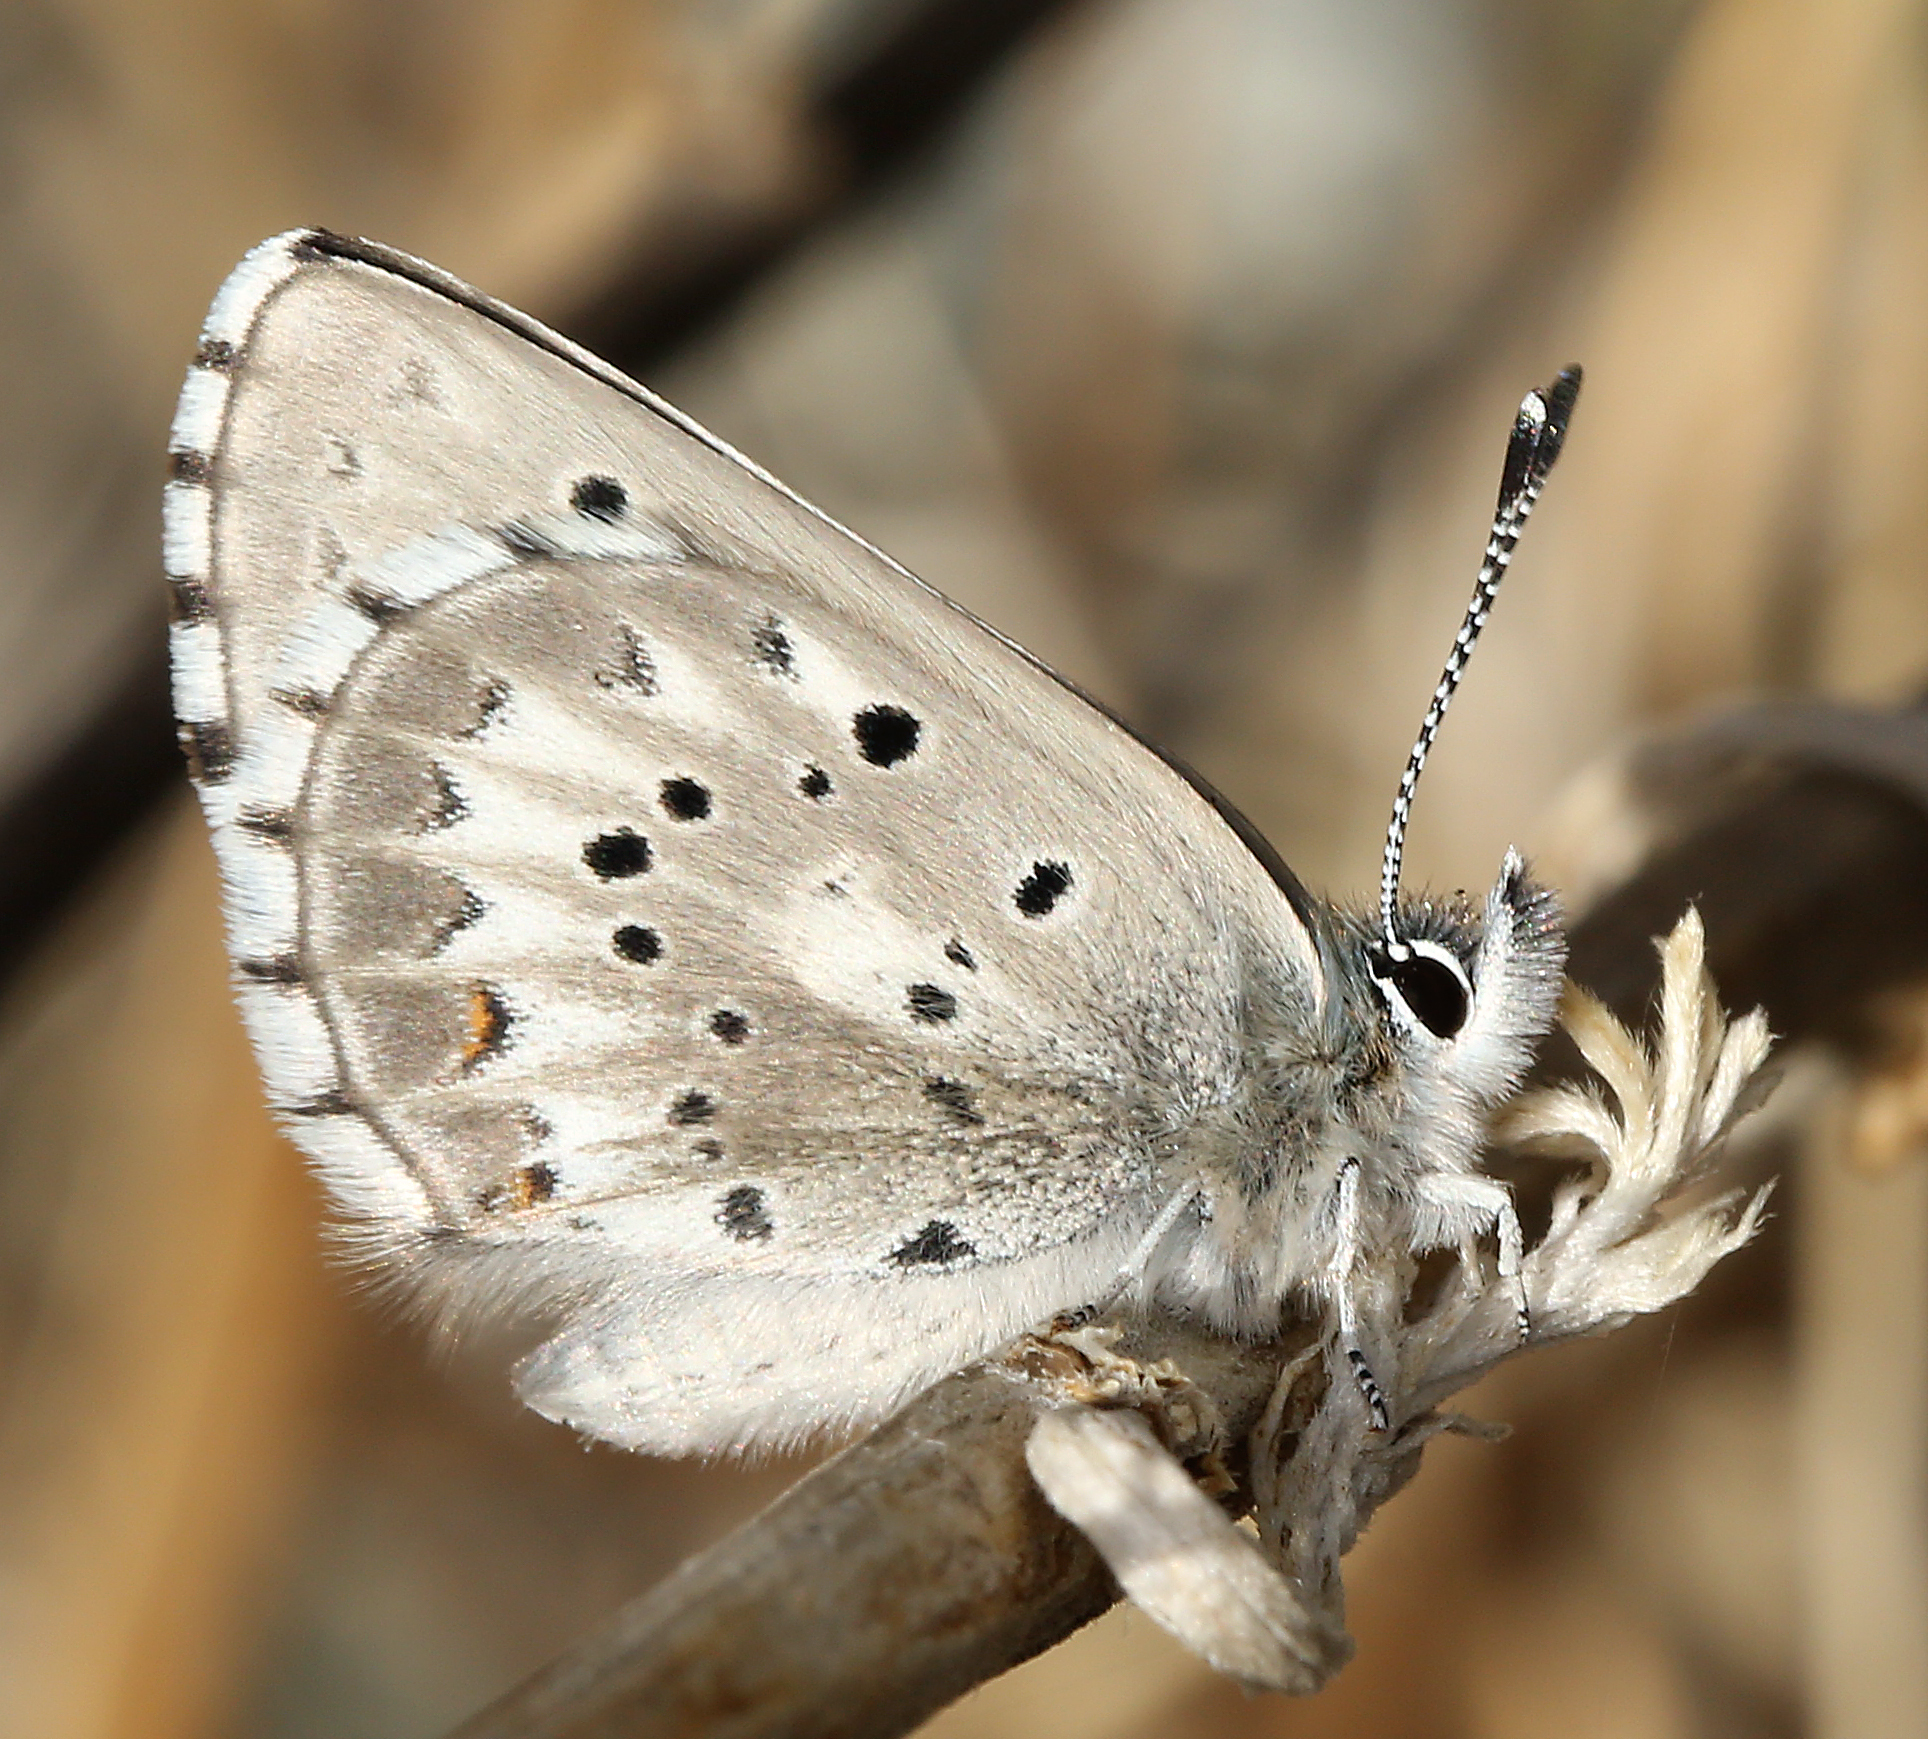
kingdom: Animalia
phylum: Arthropoda
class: Insecta
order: Lepidoptera
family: Lycaenidae
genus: Glaucopsyche
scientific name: Glaucopsyche piasus
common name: Arrowhead blue
